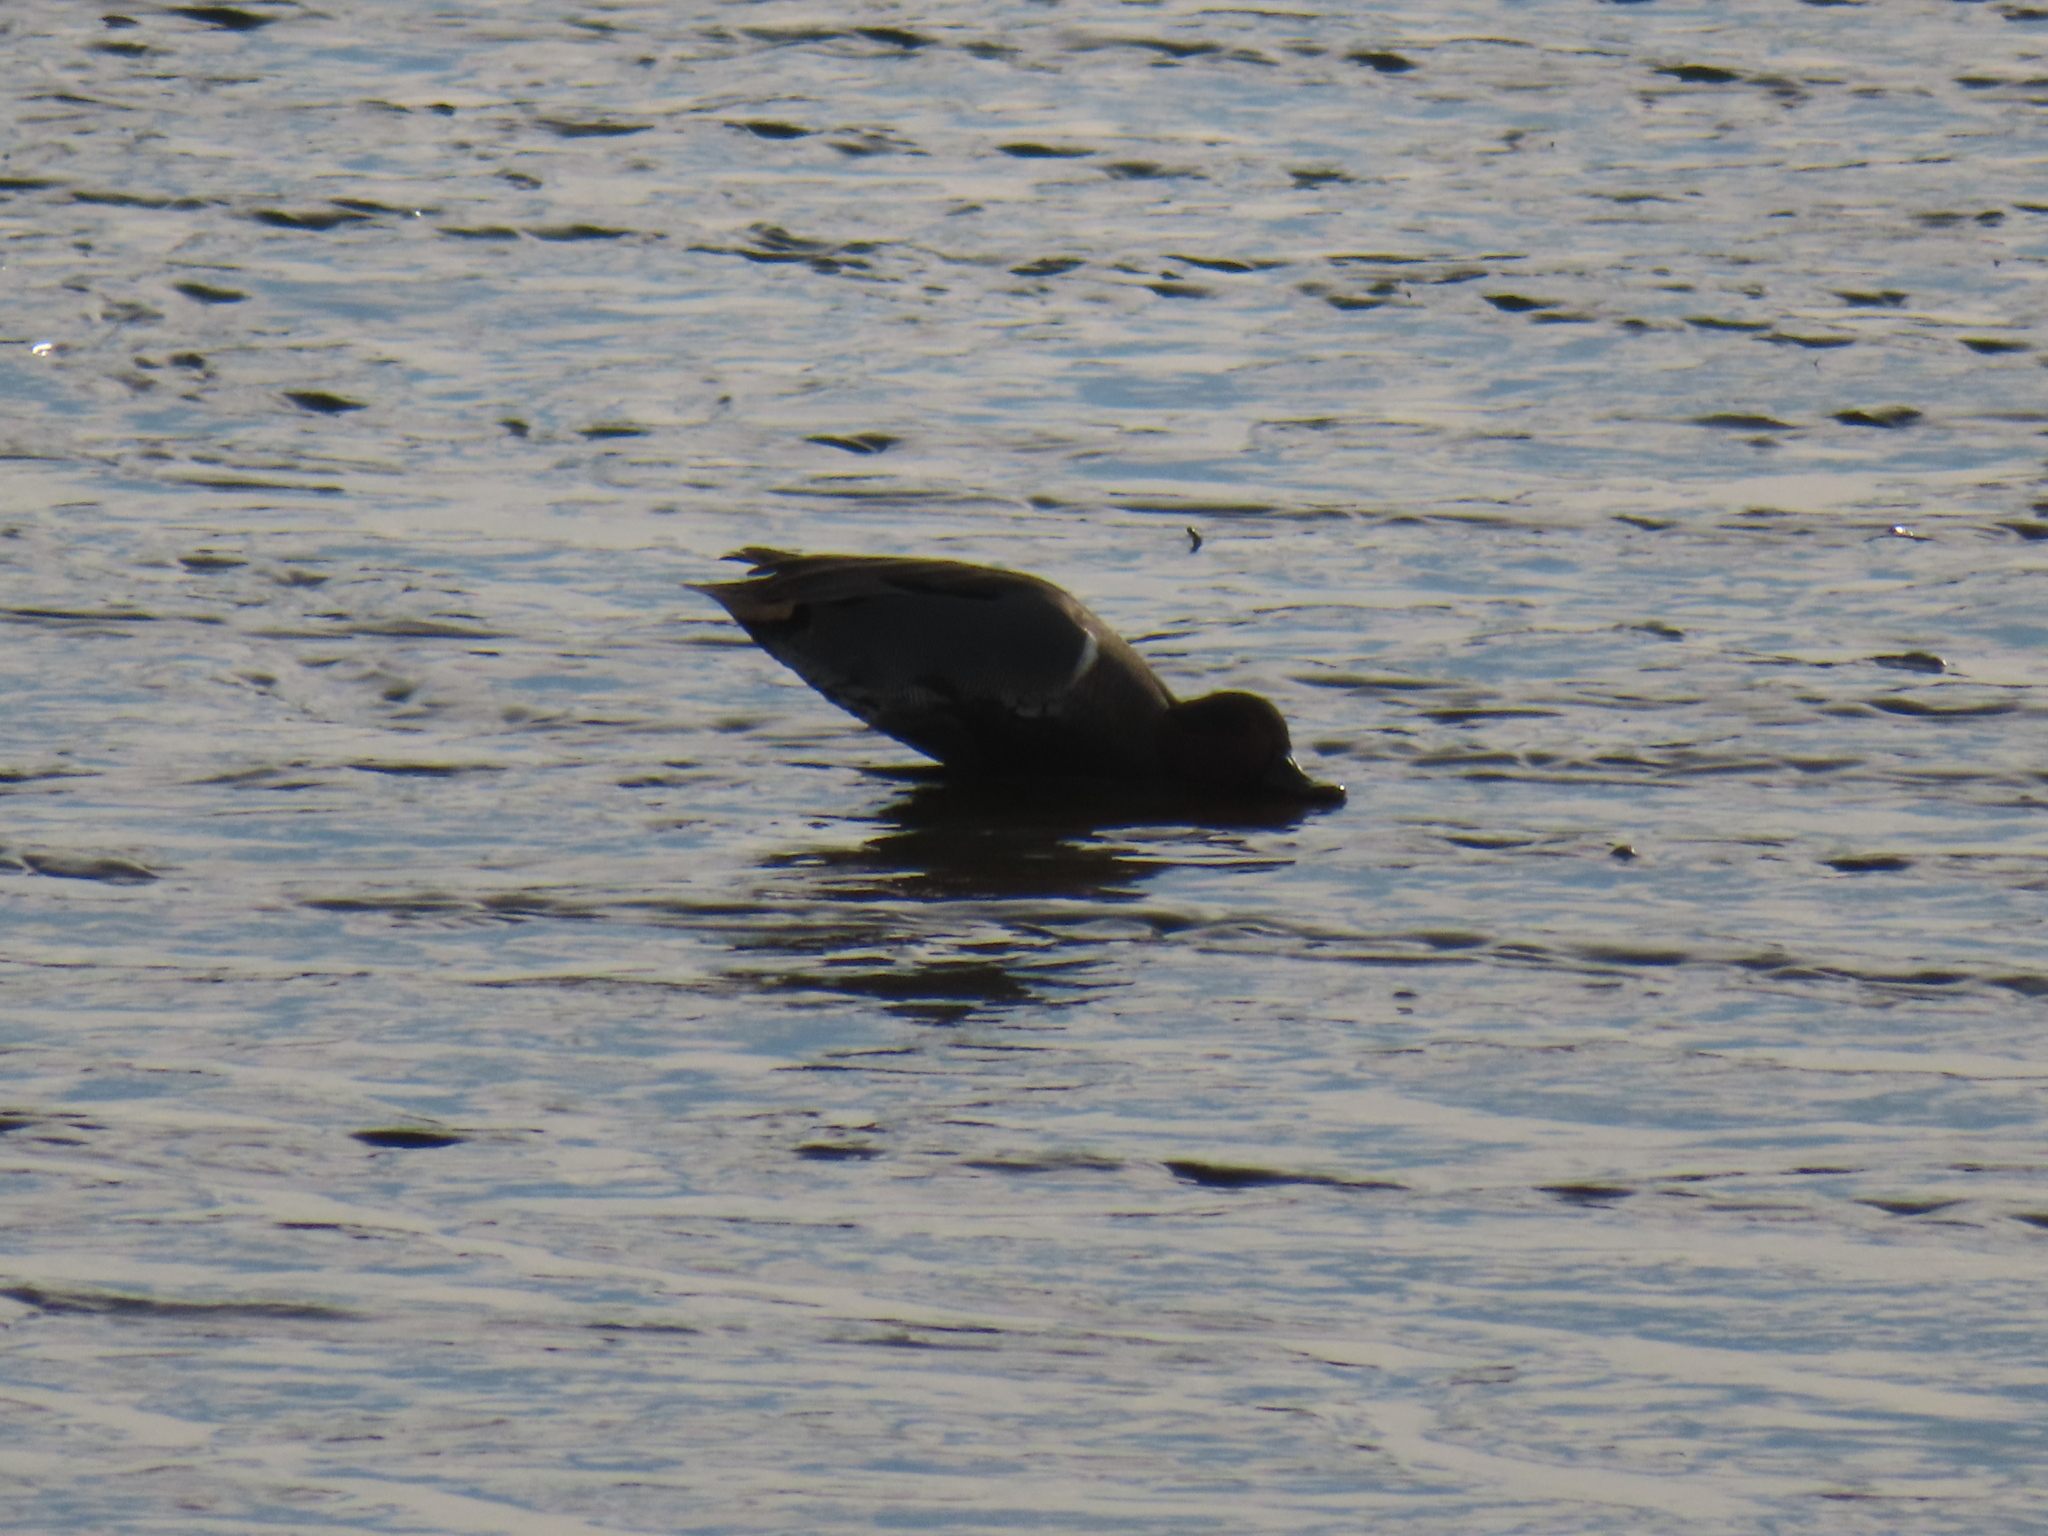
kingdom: Animalia
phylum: Chordata
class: Aves
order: Anseriformes
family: Anatidae
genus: Mareca
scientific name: Mareca strepera
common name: Gadwall
